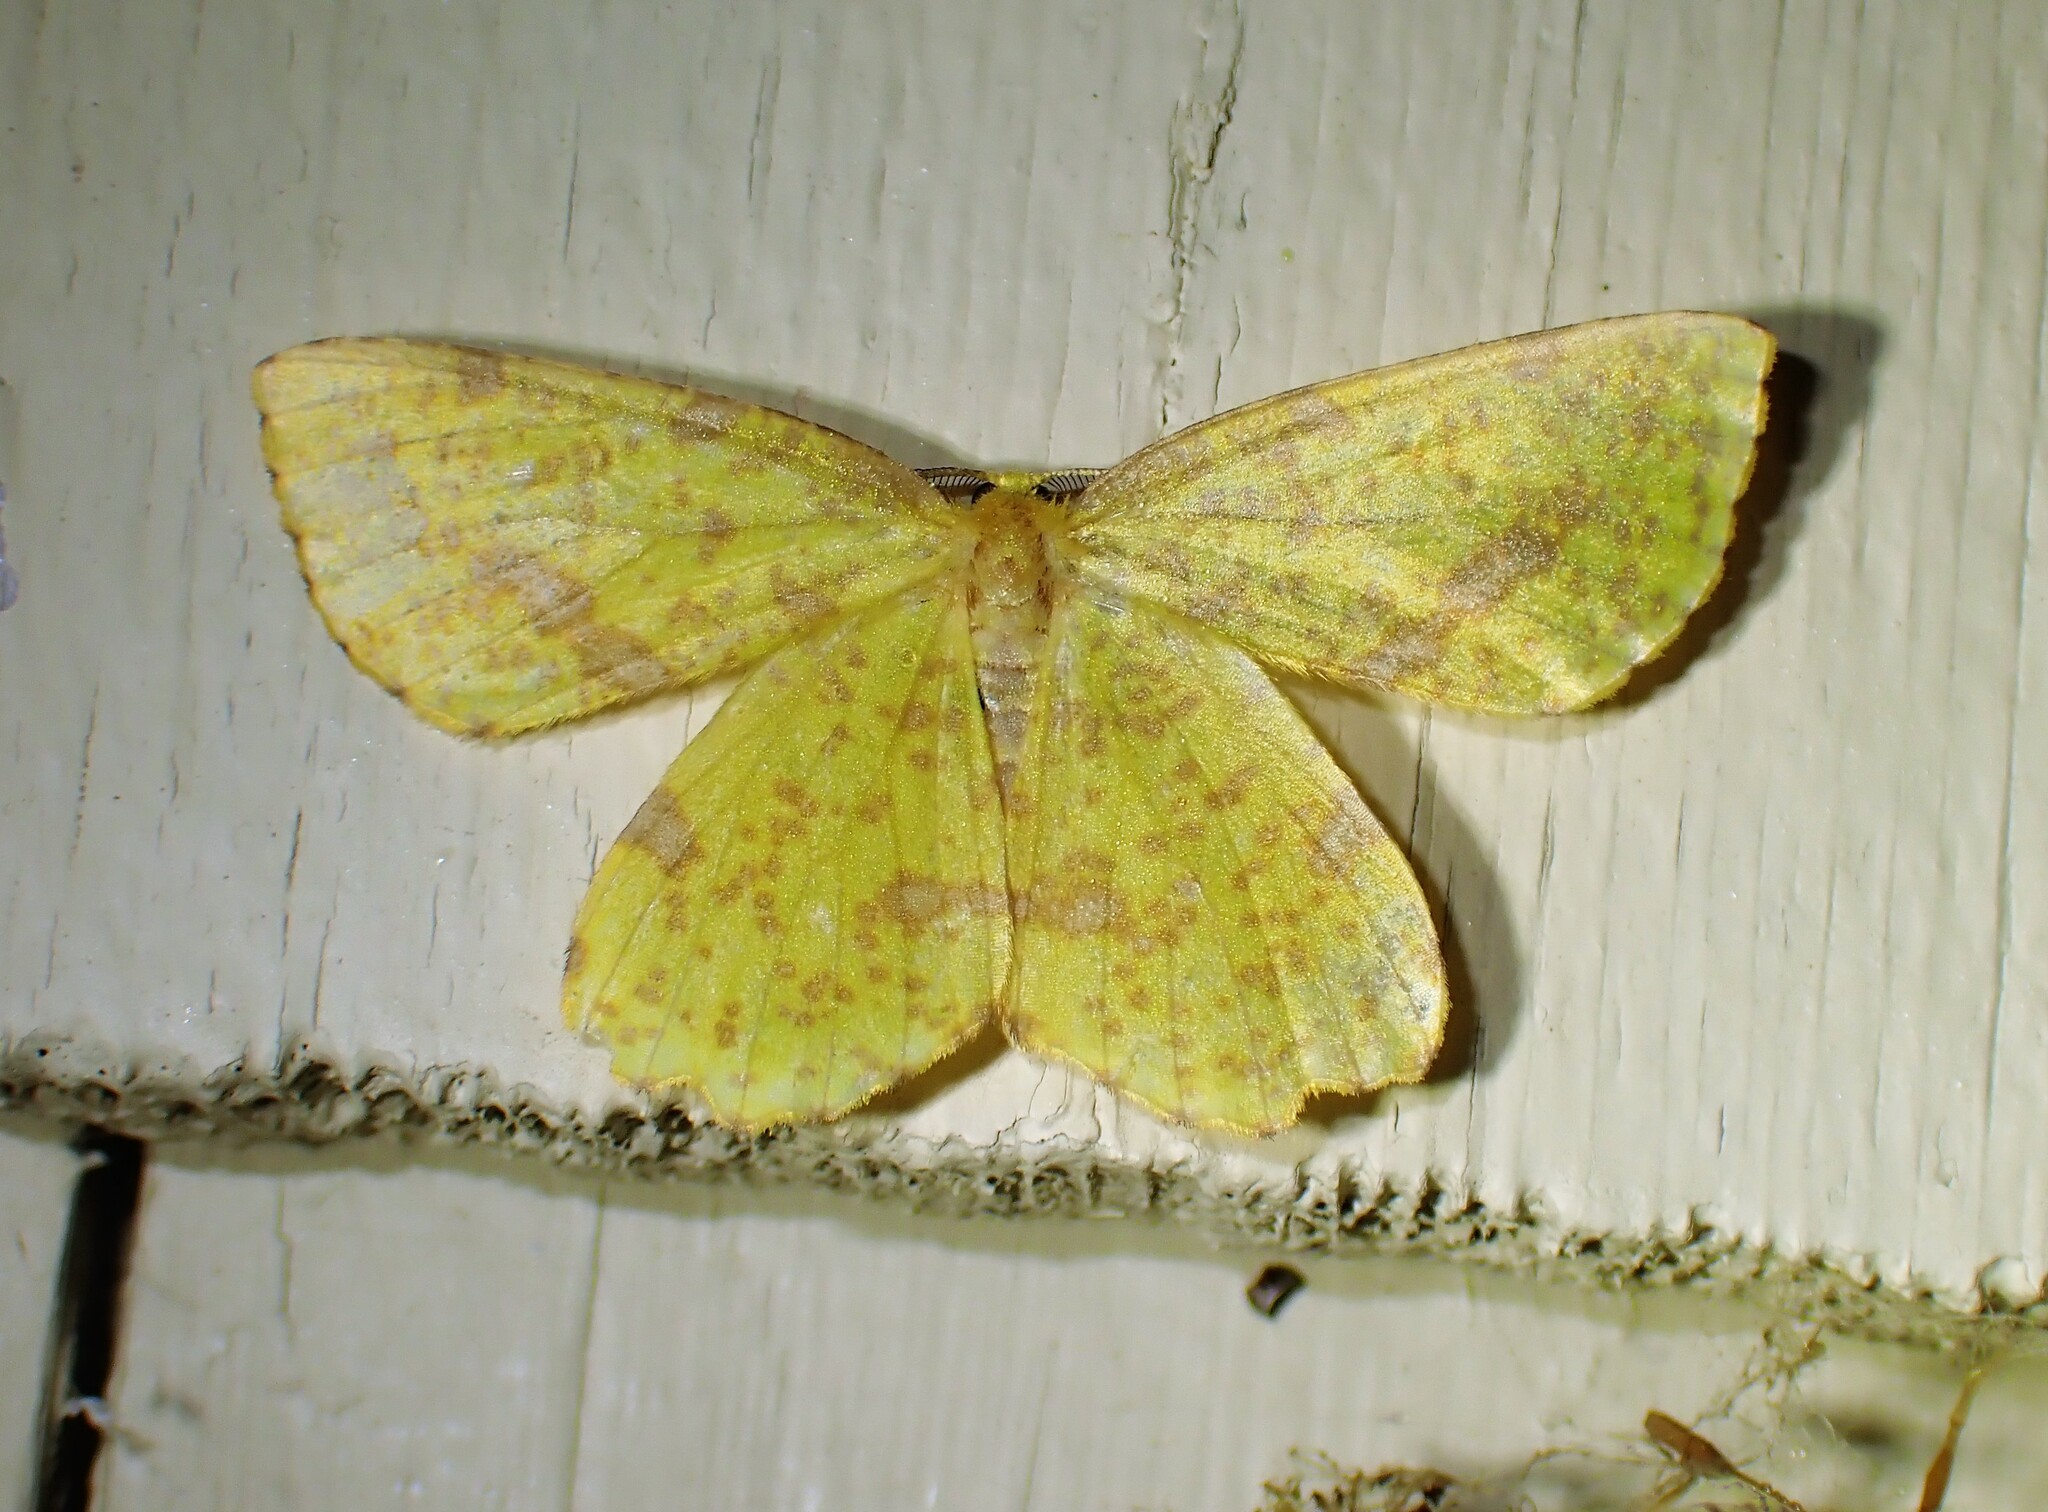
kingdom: Animalia
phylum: Arthropoda
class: Insecta
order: Lepidoptera
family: Geometridae
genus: Xanthotype
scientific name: Xanthotype
